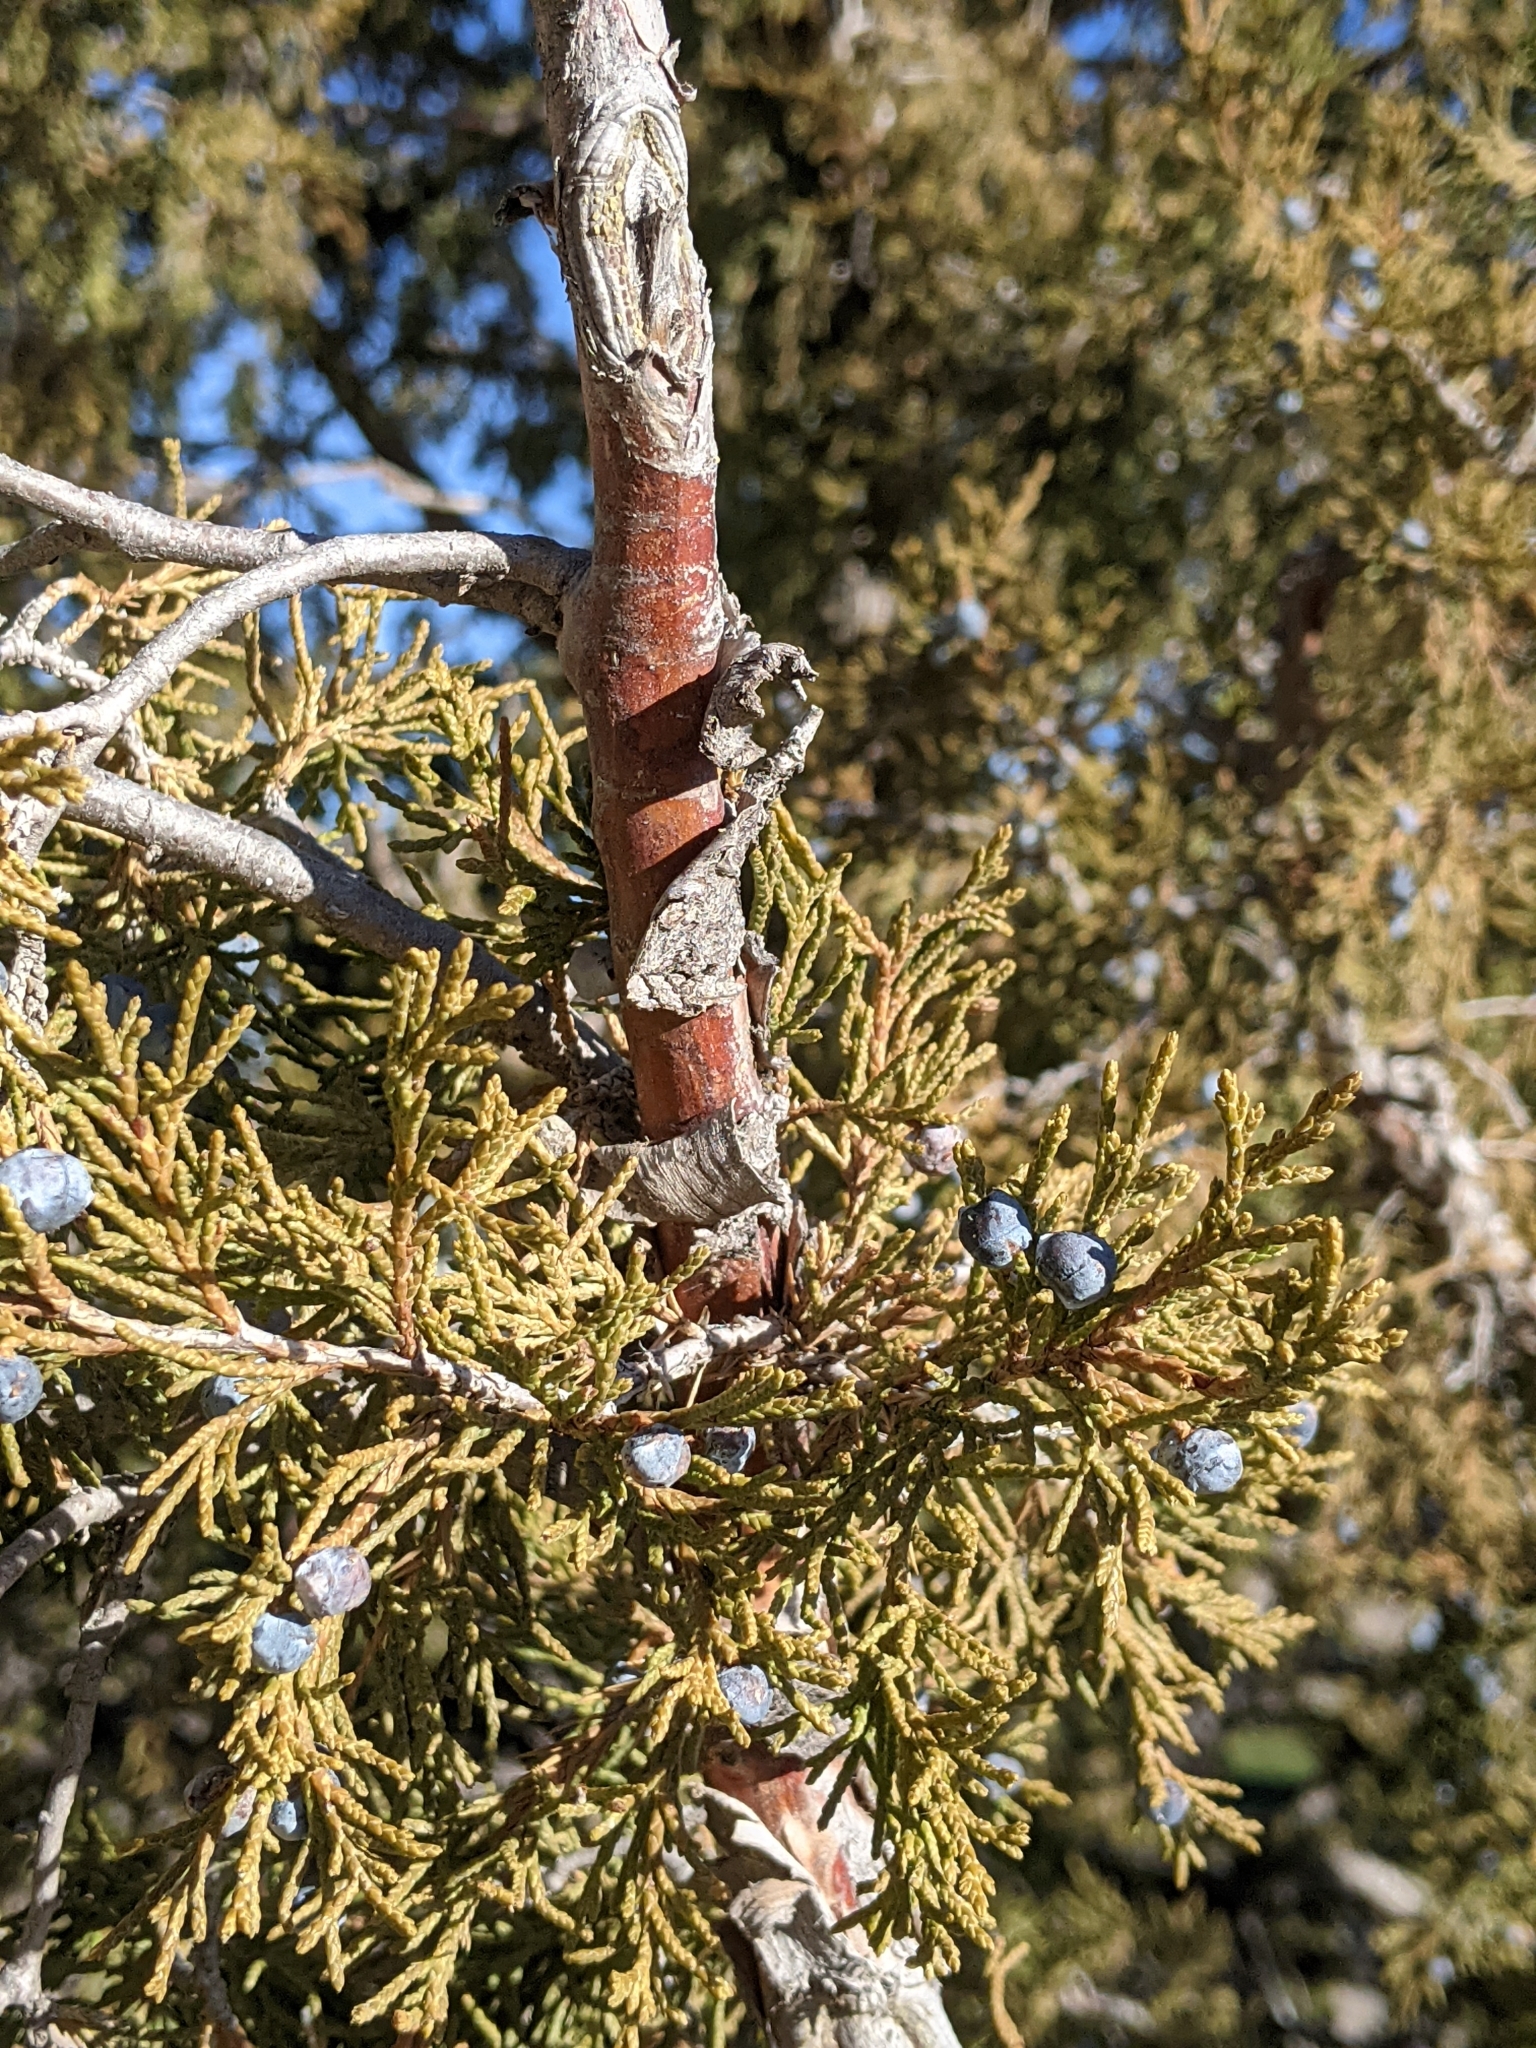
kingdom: Plantae
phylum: Tracheophyta
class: Pinopsida
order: Pinales
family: Cupressaceae
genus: Juniperus
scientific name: Juniperus scopulorum
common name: Rocky mountain juniper
